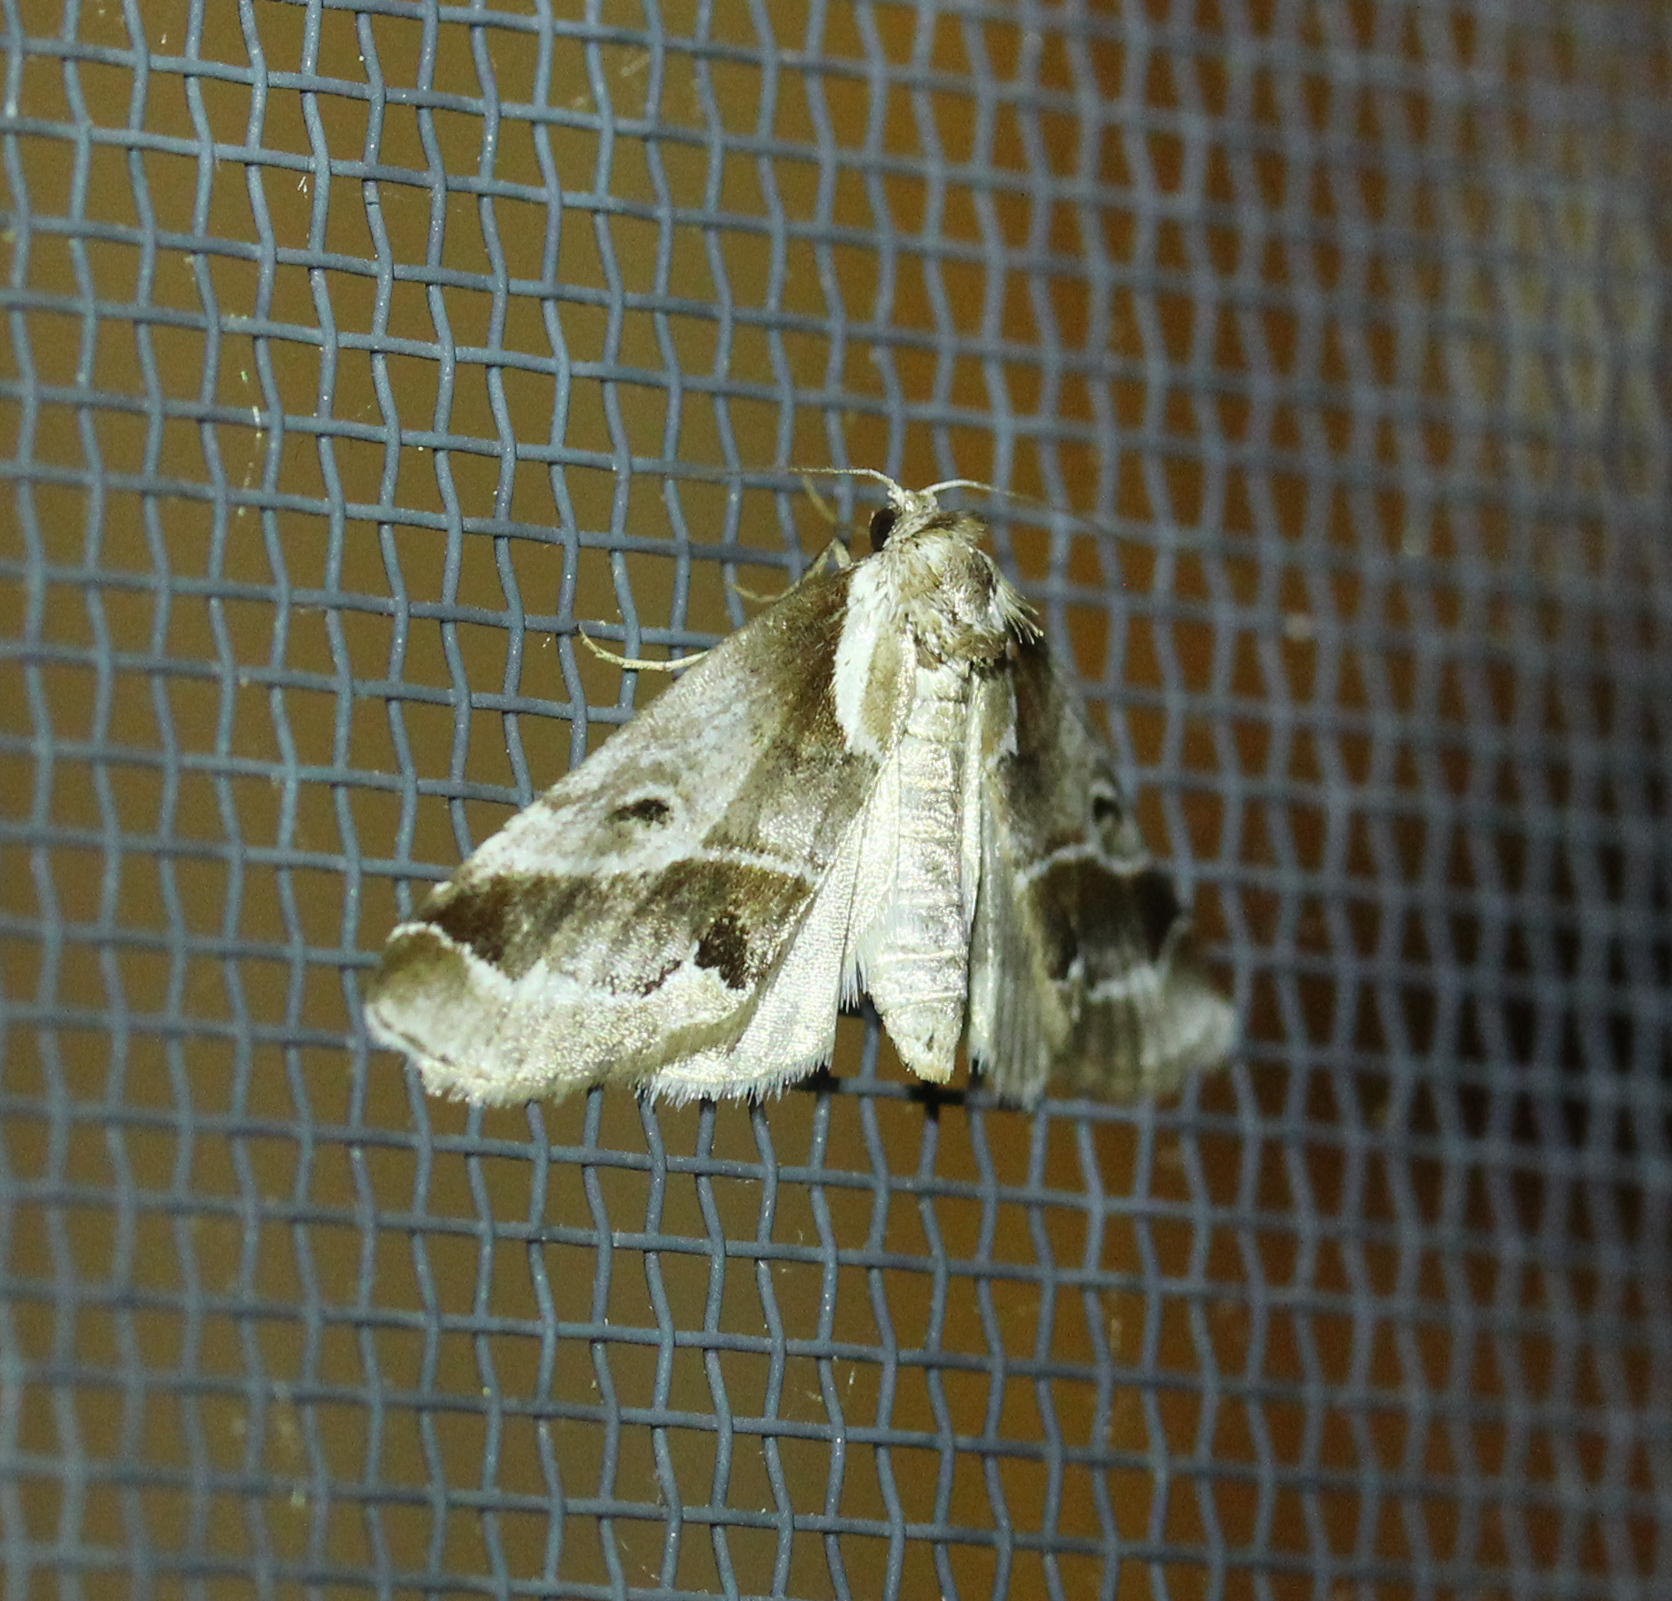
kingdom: Animalia
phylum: Arthropoda
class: Insecta
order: Lepidoptera
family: Nolidae
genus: Baileya
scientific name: Baileya doubledayi
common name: Doubleday's baileya moth
